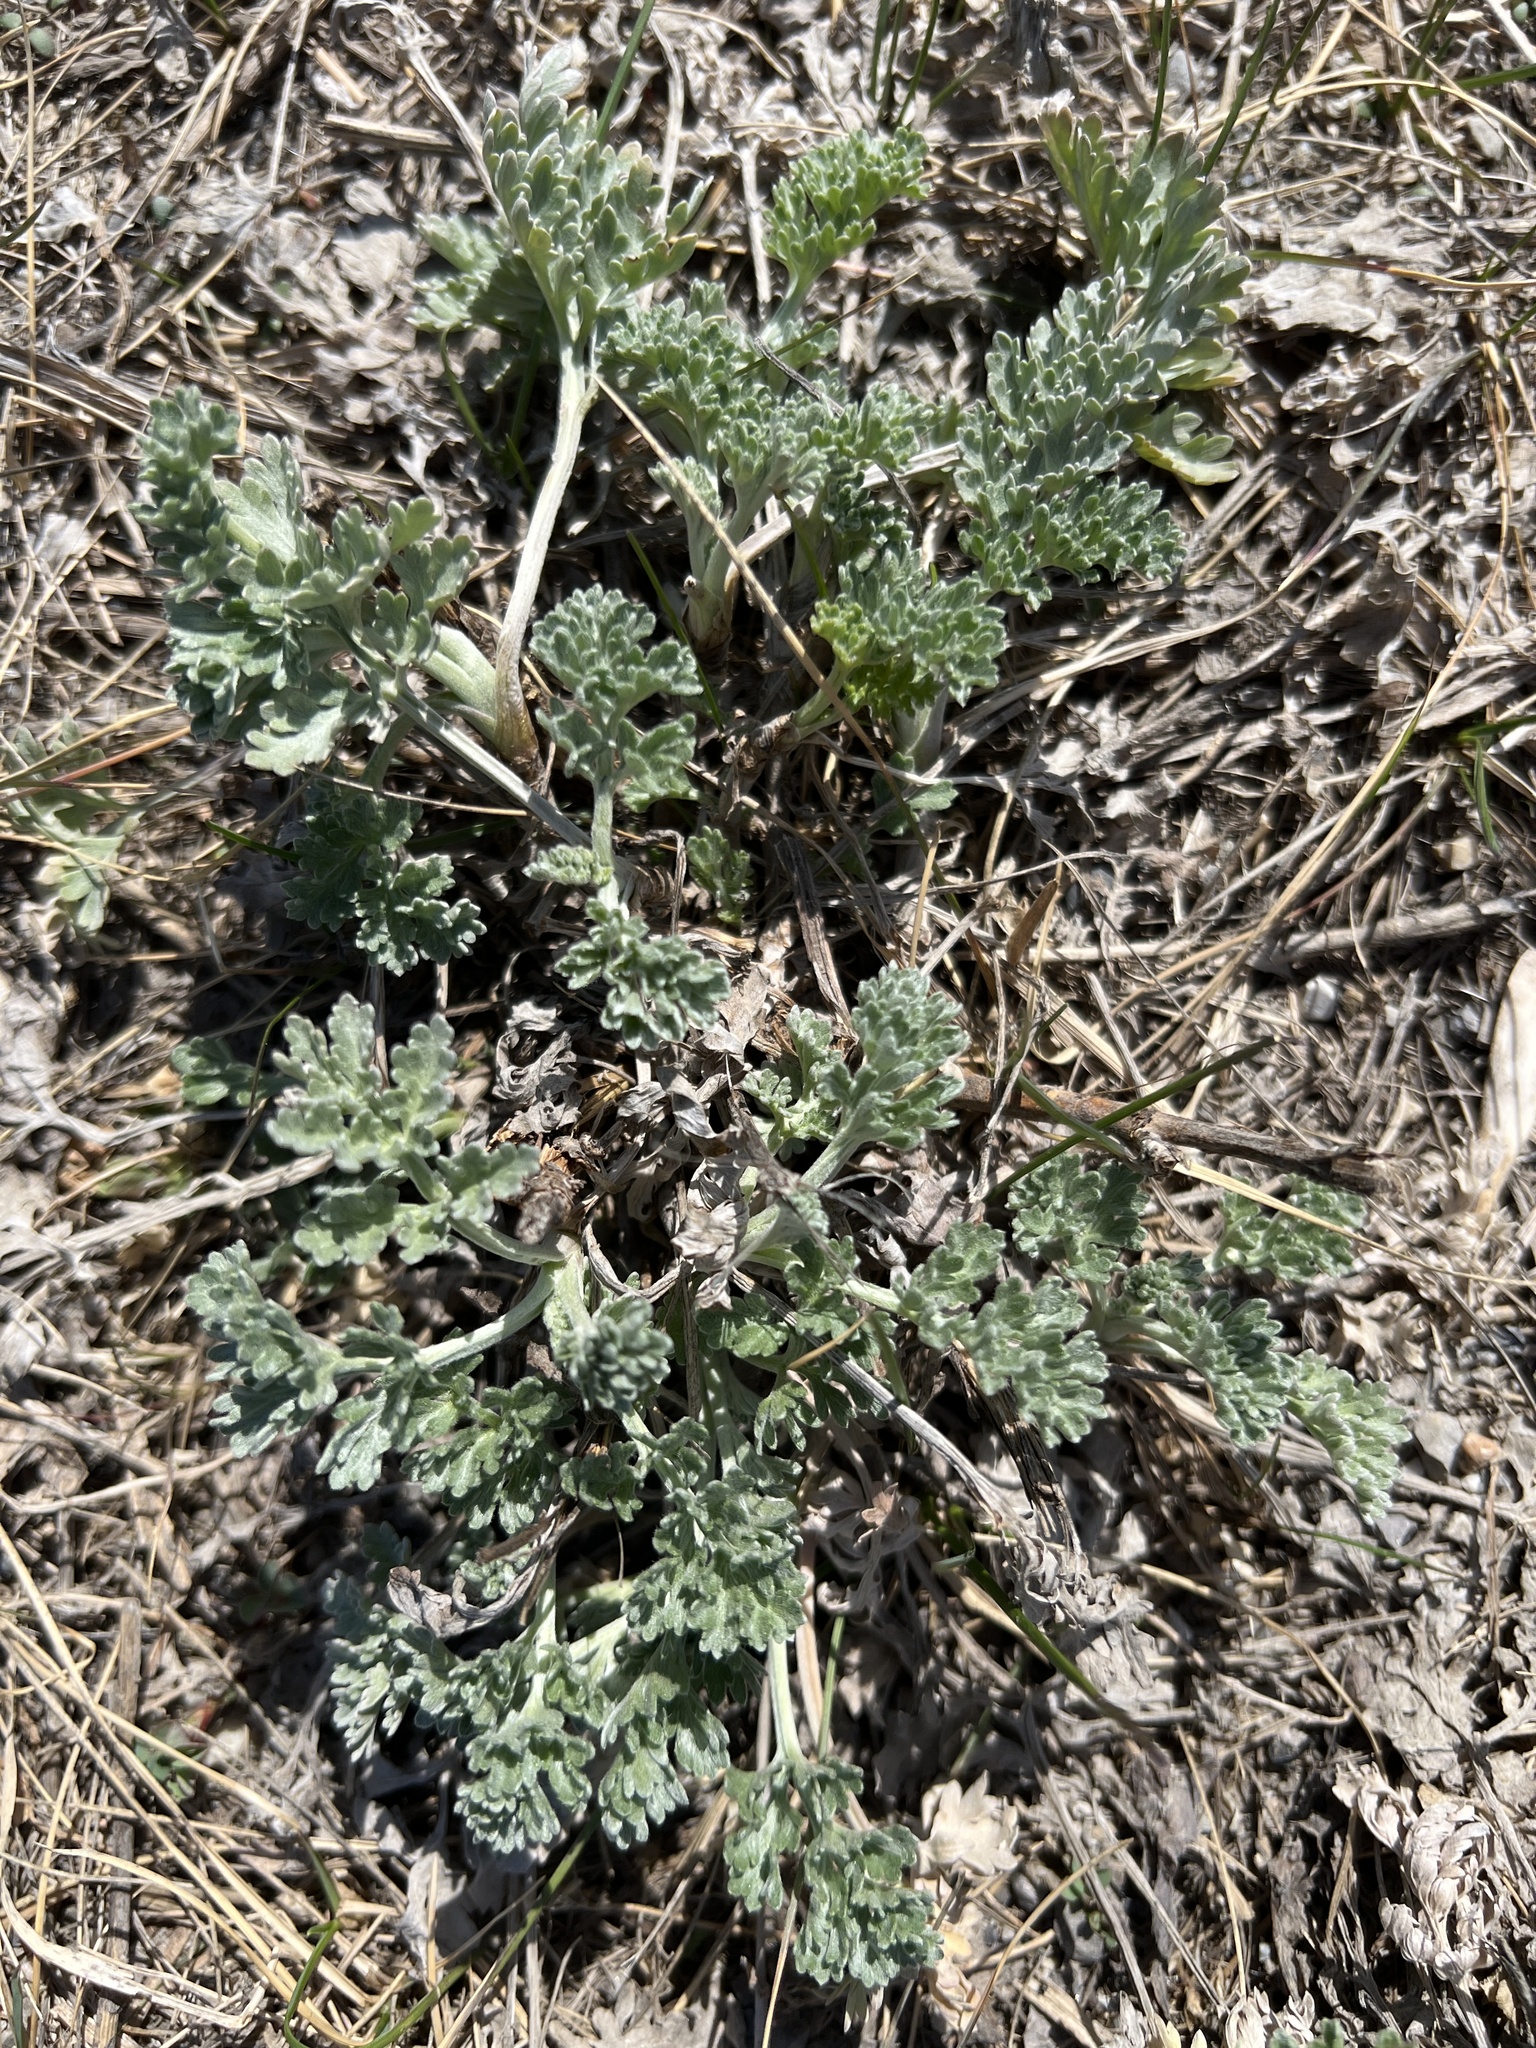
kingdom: Plantae
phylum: Tracheophyta
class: Magnoliopsida
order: Asterales
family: Asteraceae
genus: Artemisia
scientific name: Artemisia absinthium
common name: Wormwood
